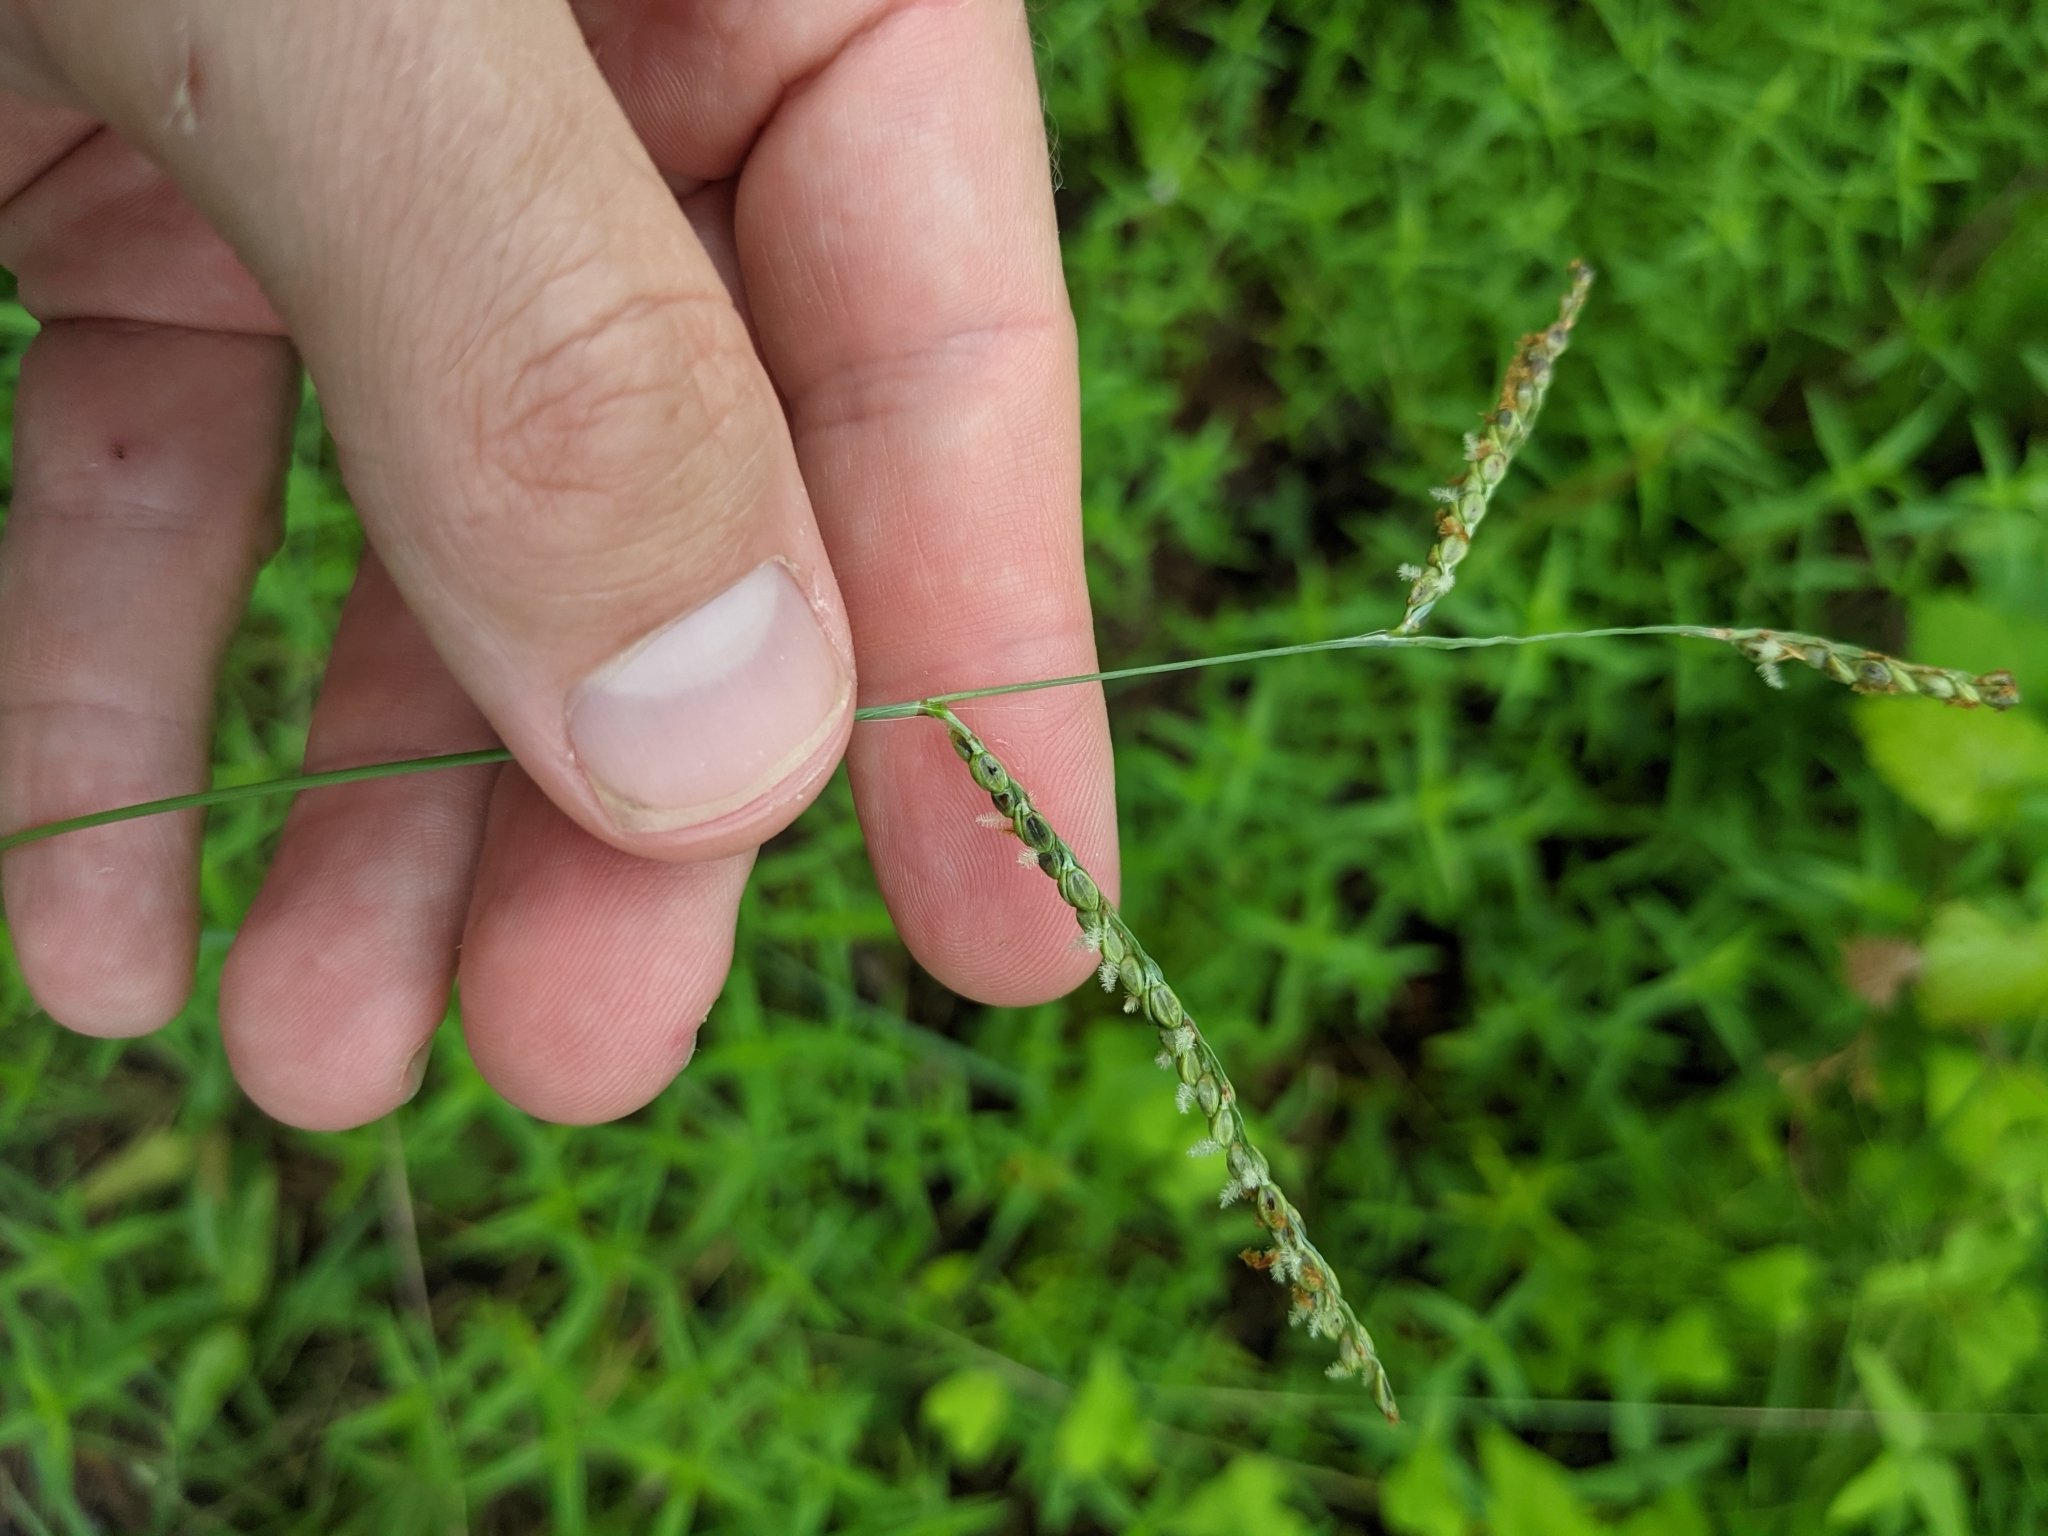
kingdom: Plantae
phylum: Tracheophyta
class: Liliopsida
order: Poales
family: Poaceae
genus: Paspalum
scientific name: Paspalum plicatulum
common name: Top paspalum
